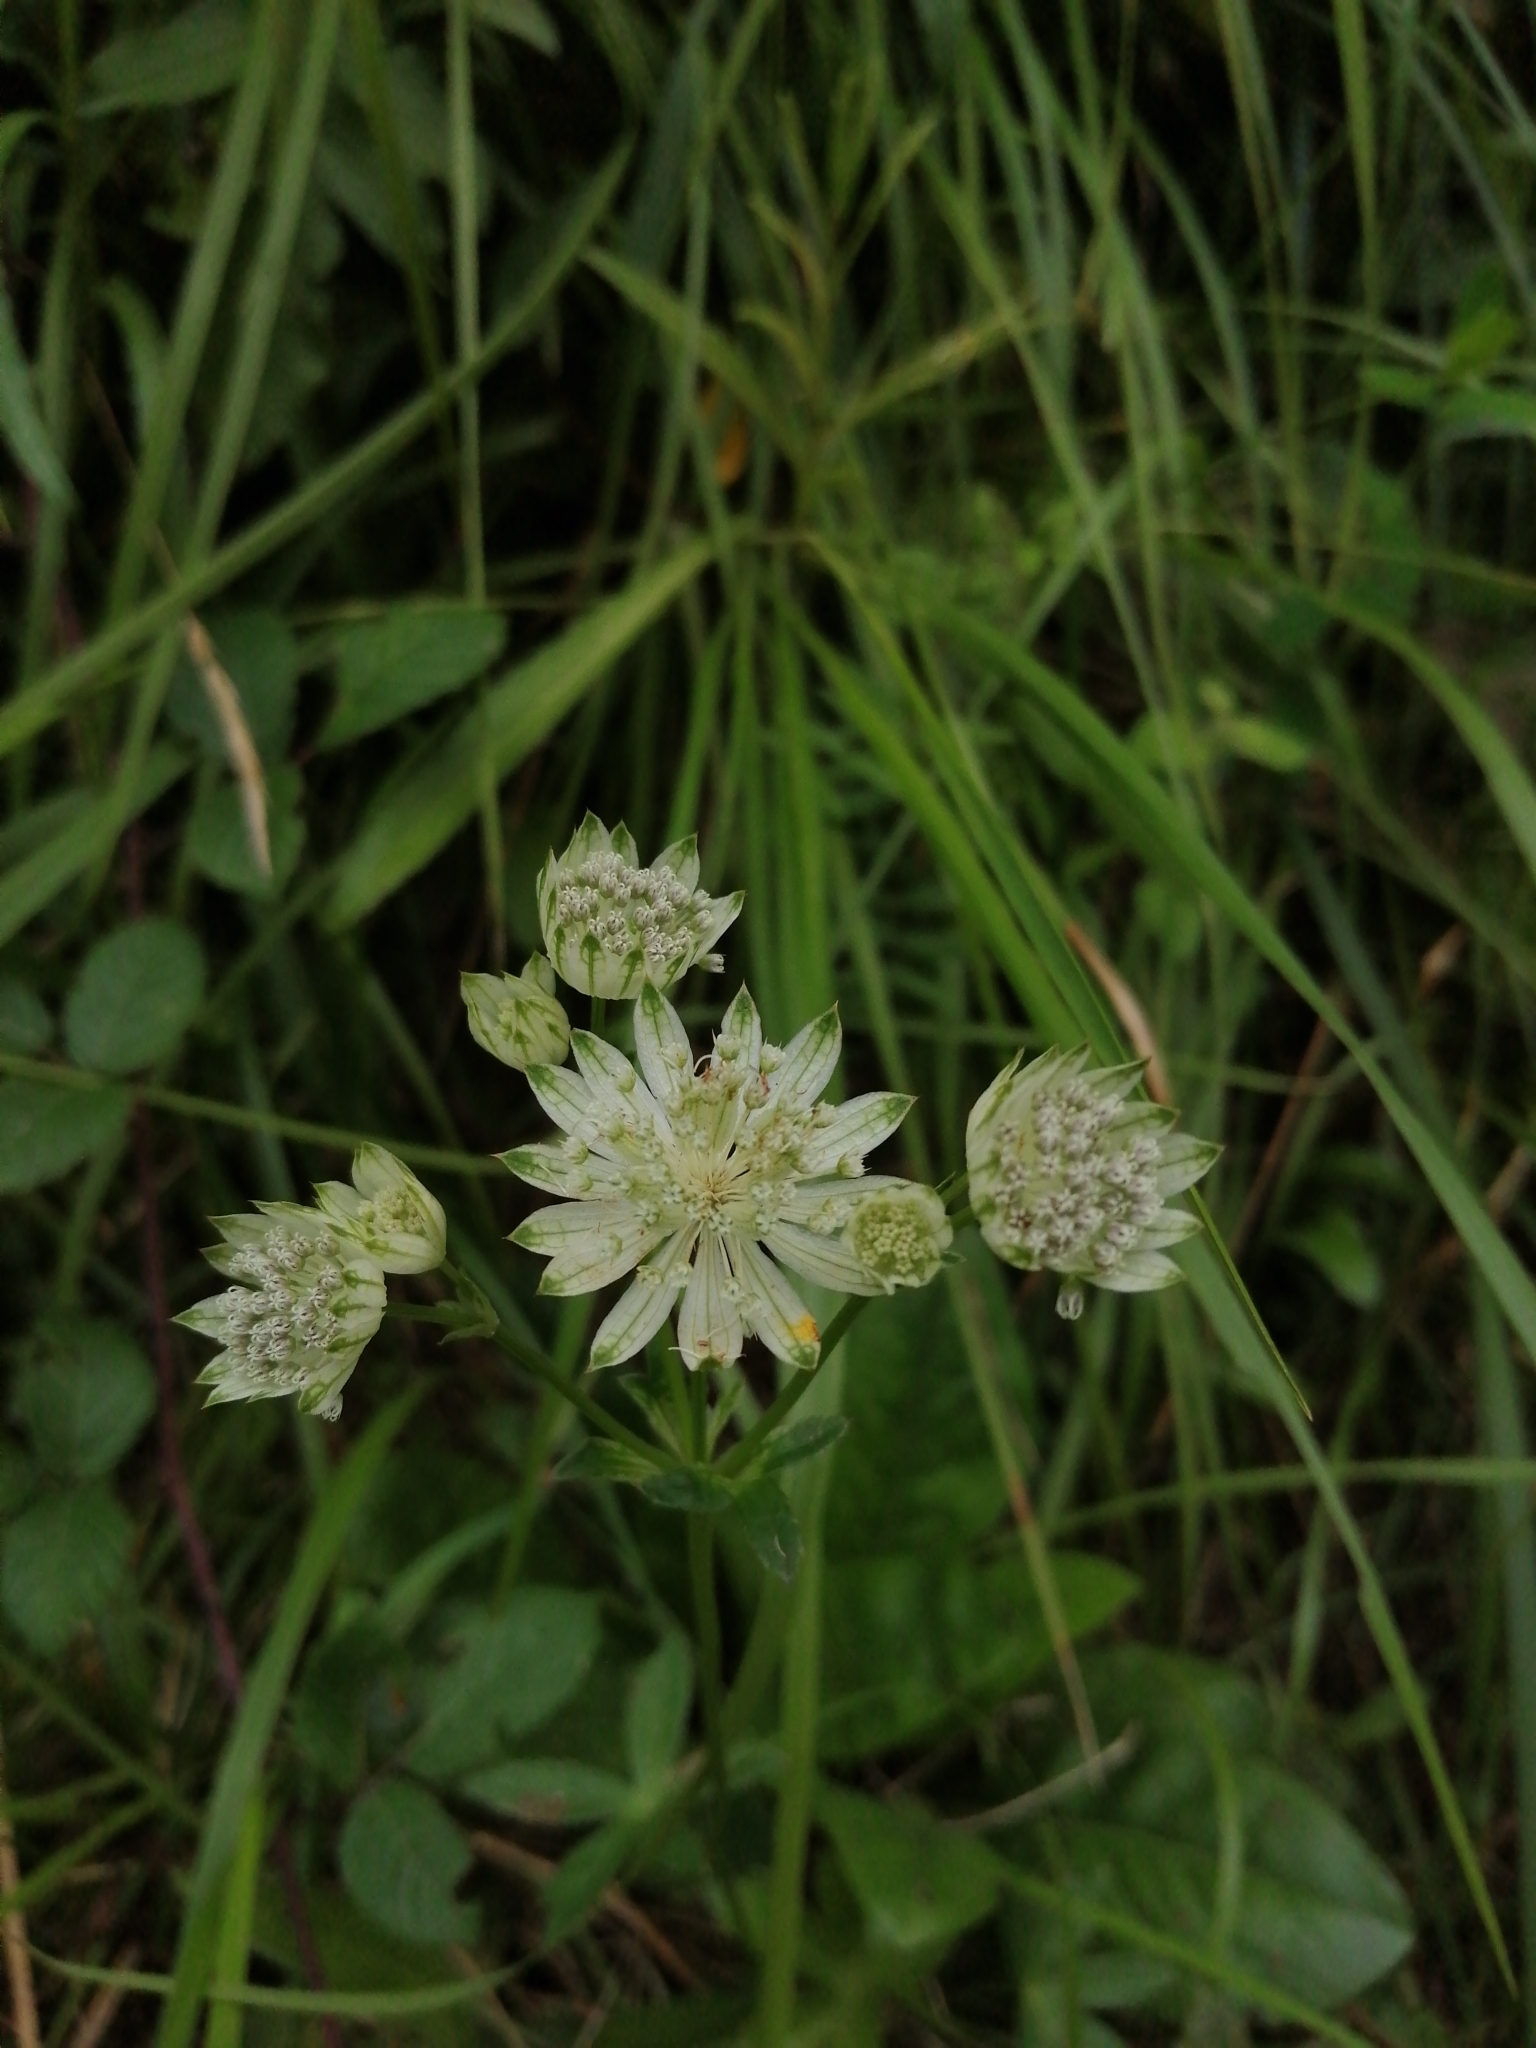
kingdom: Plantae
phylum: Tracheophyta
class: Magnoliopsida
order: Apiales
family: Apiaceae
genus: Astrantia
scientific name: Astrantia major
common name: Greater masterwort
